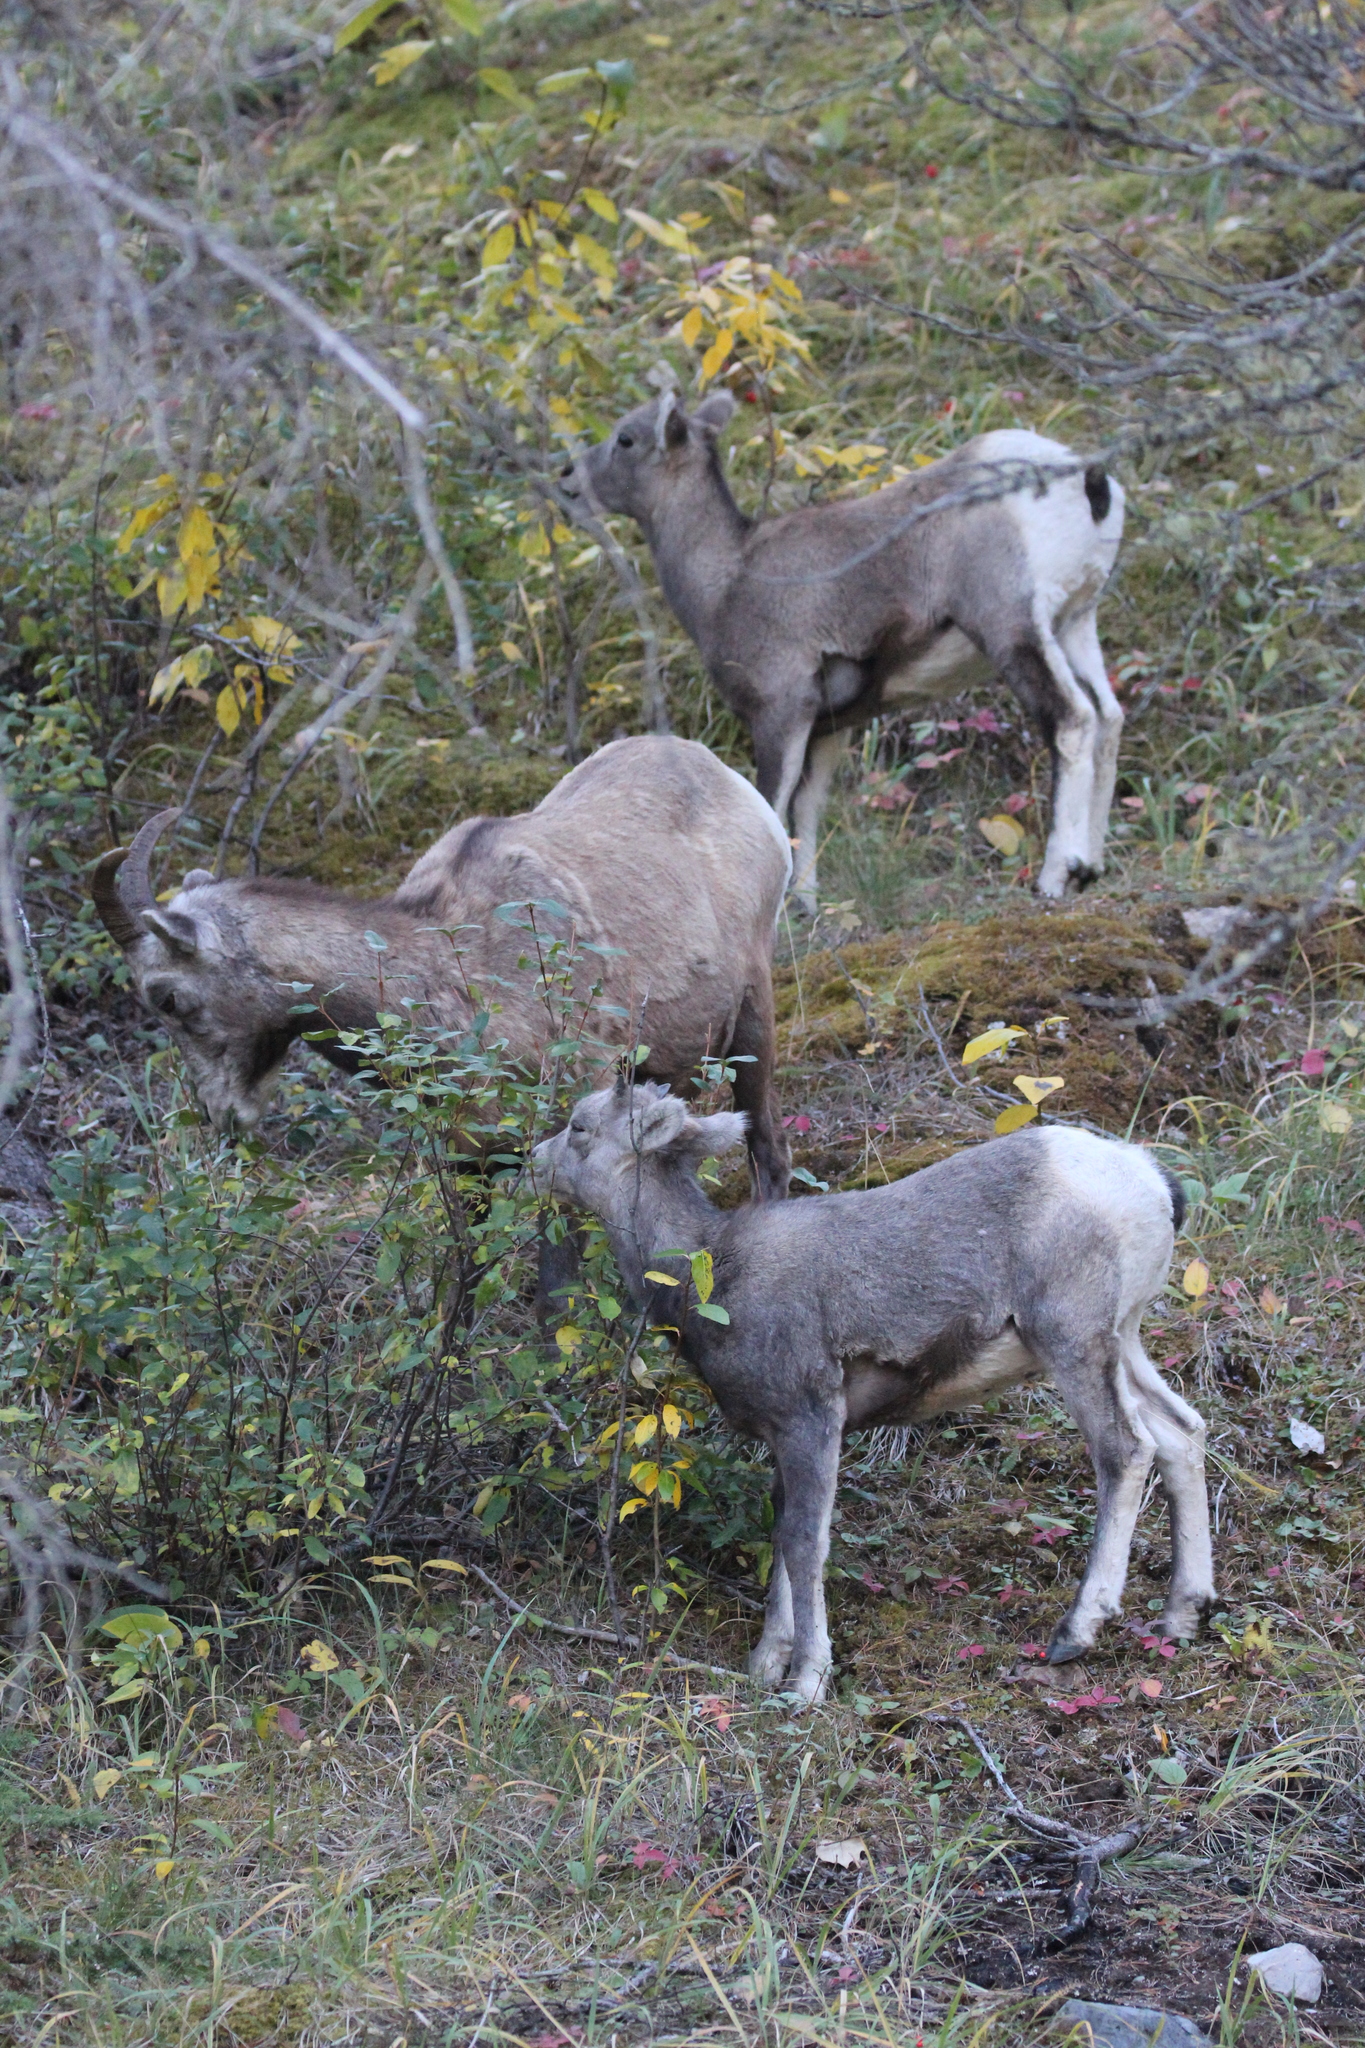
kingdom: Animalia
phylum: Chordata
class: Mammalia
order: Artiodactyla
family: Bovidae
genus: Ovis
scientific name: Ovis canadensis
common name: Bighorn sheep
